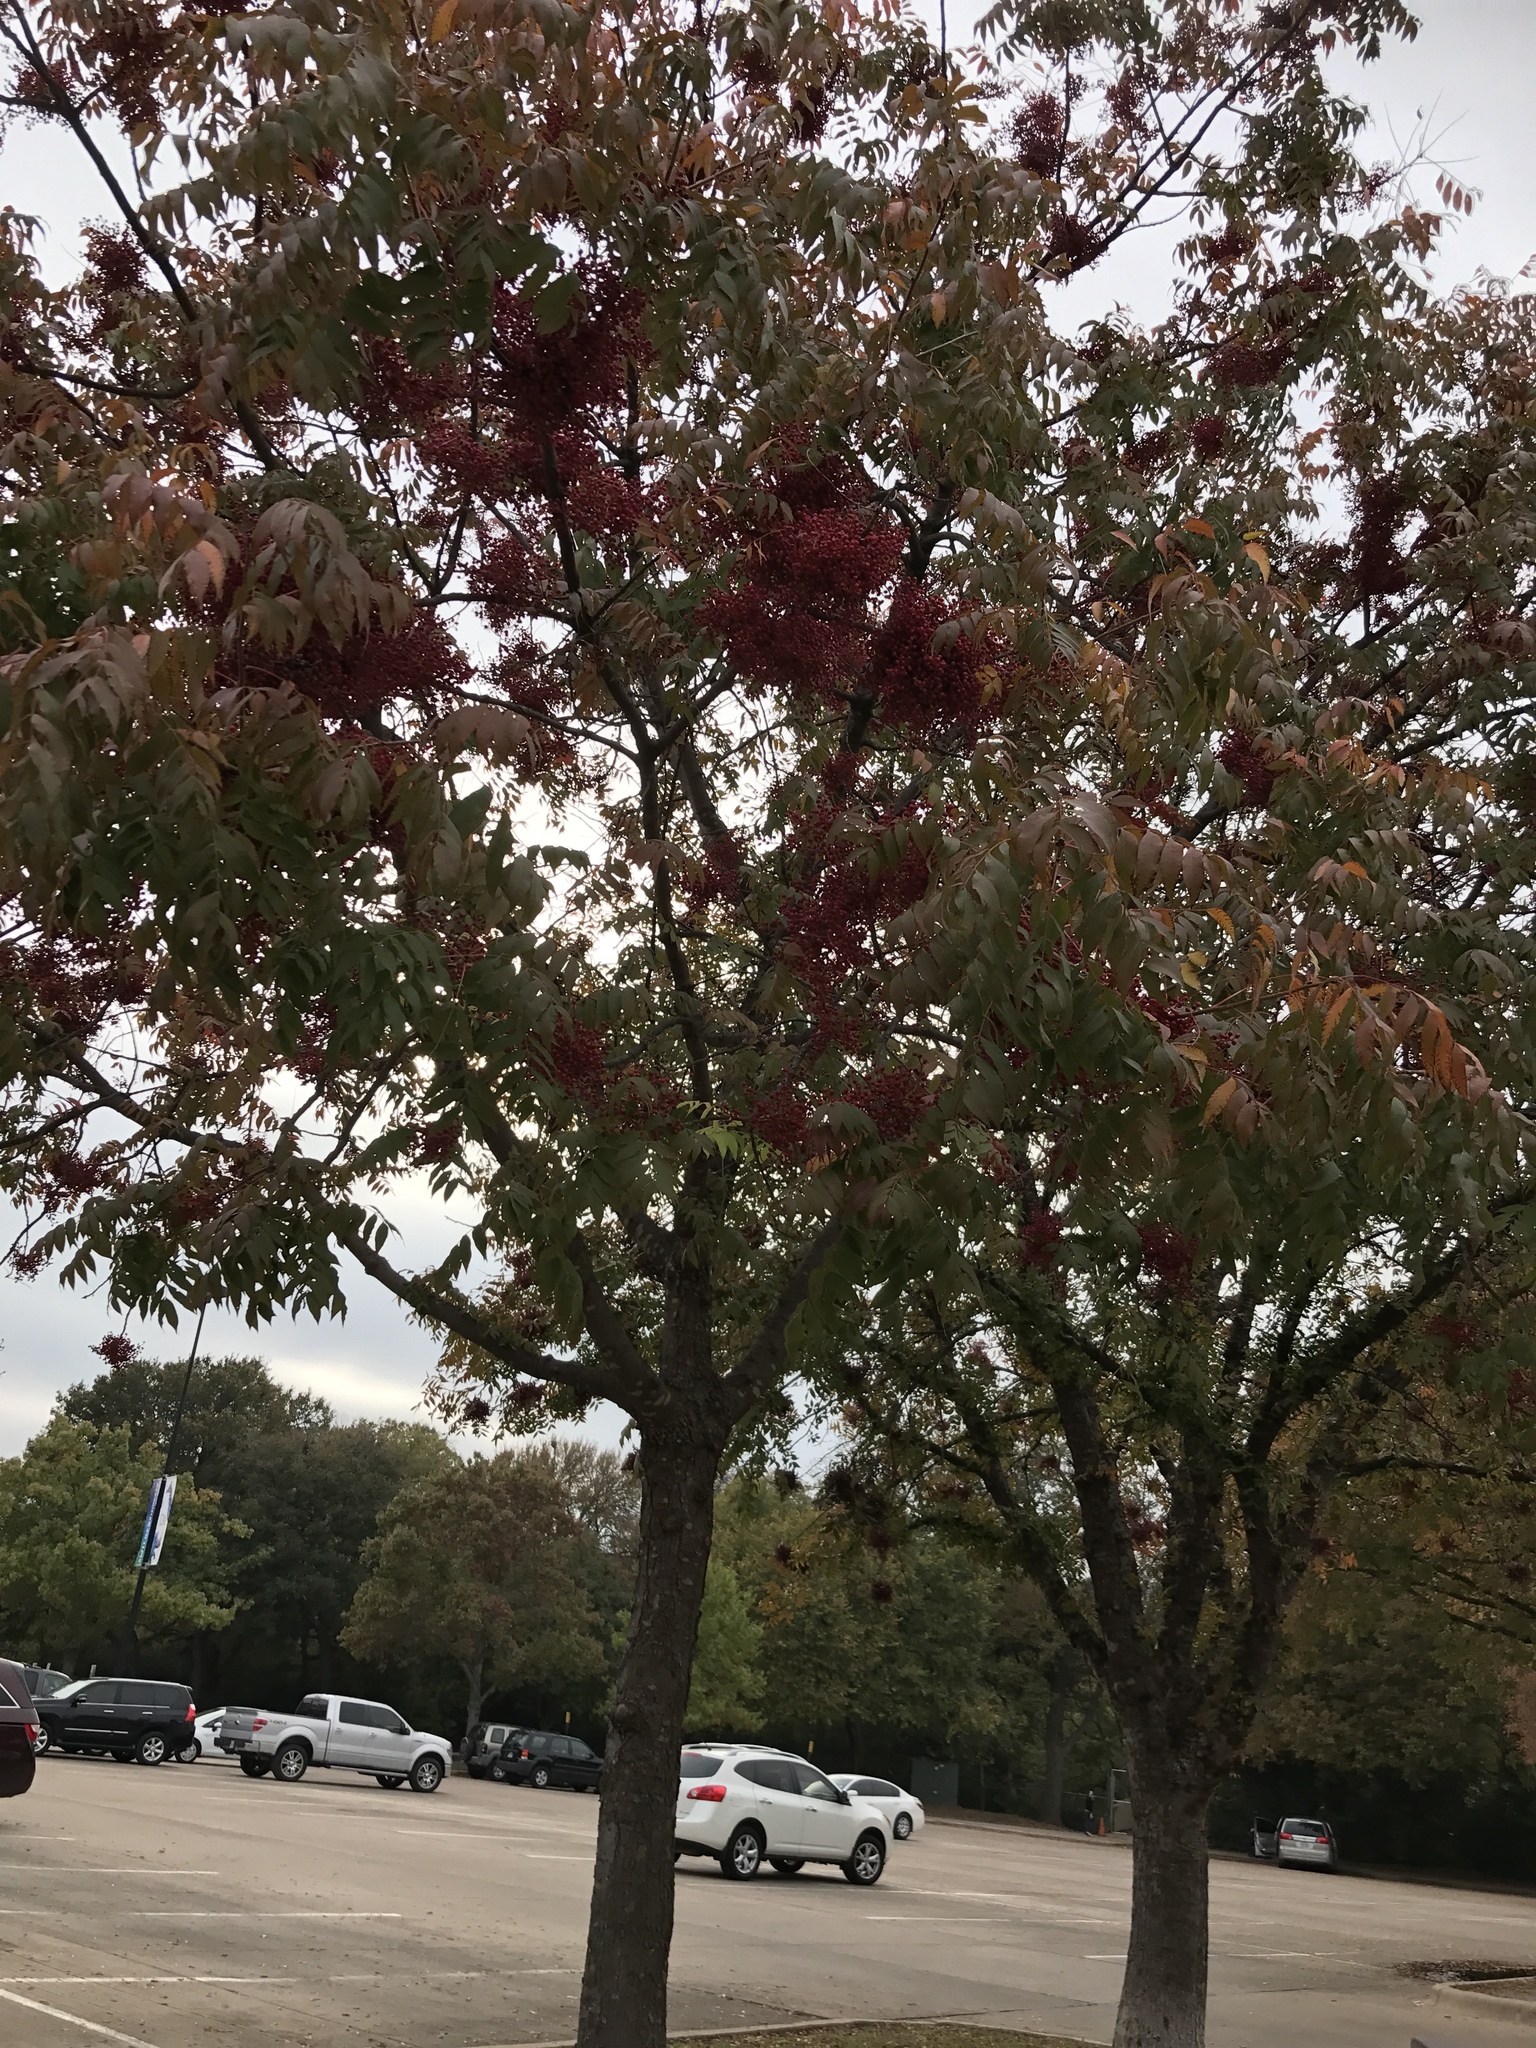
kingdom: Plantae
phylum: Tracheophyta
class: Magnoliopsida
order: Sapindales
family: Anacardiaceae
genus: Pistacia
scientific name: Pistacia chinensis
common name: Chinese pistache
